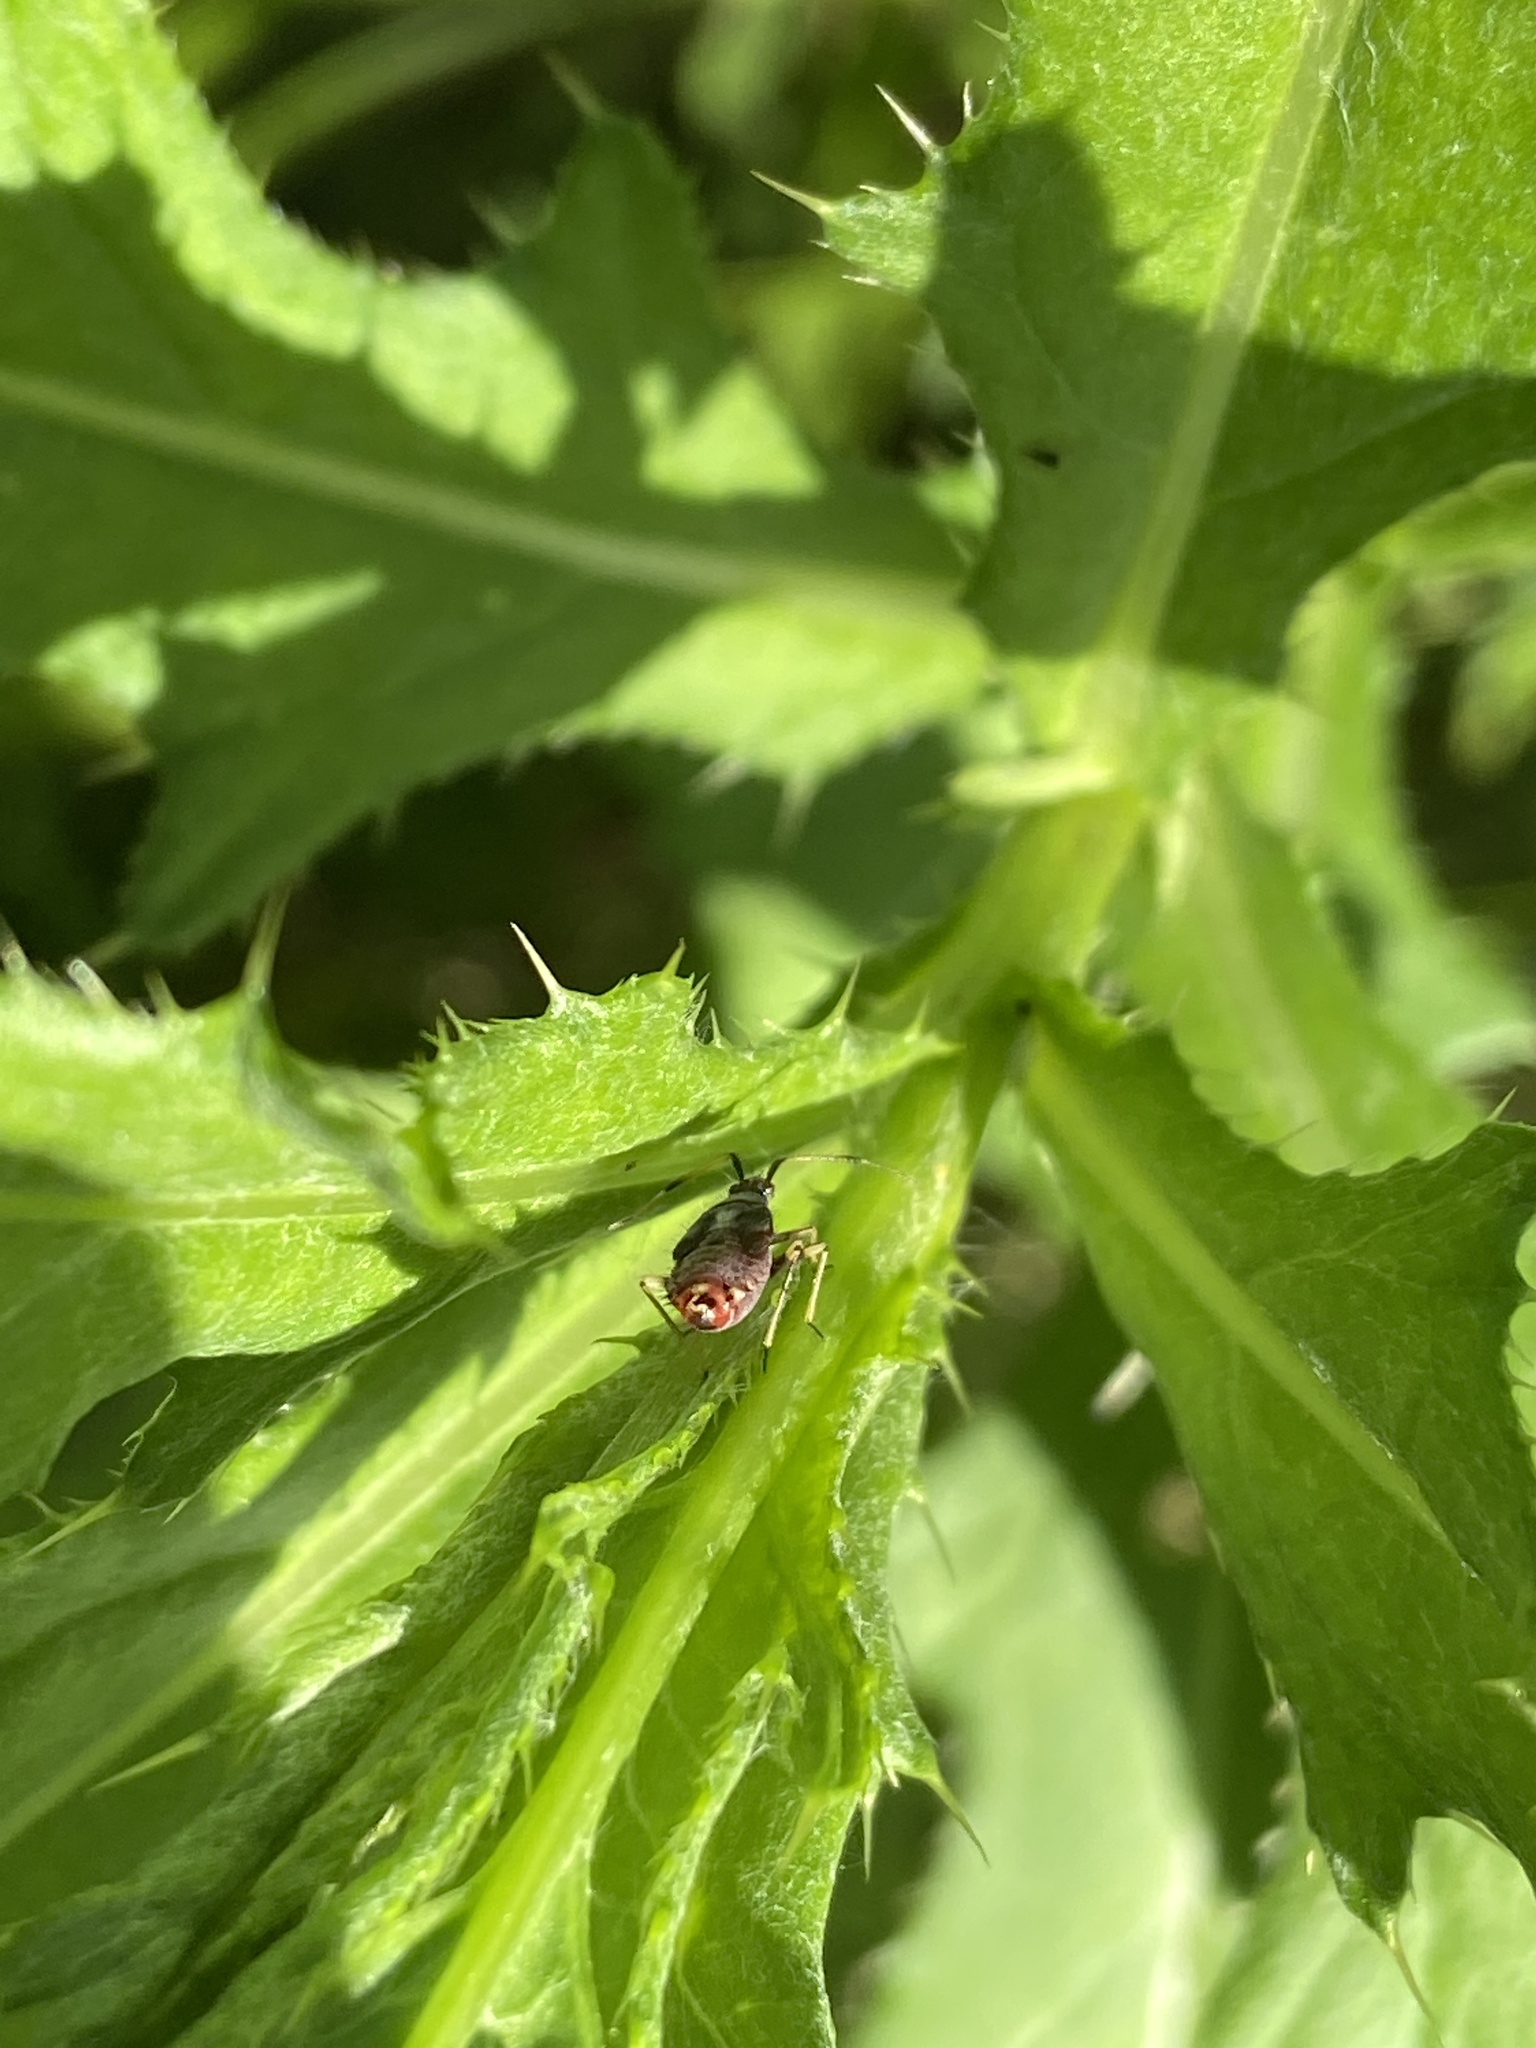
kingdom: Animalia
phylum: Arthropoda
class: Insecta
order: Hemiptera
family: Miridae
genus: Deraeocoris
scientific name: Deraeocoris ruber
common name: Plant bug
